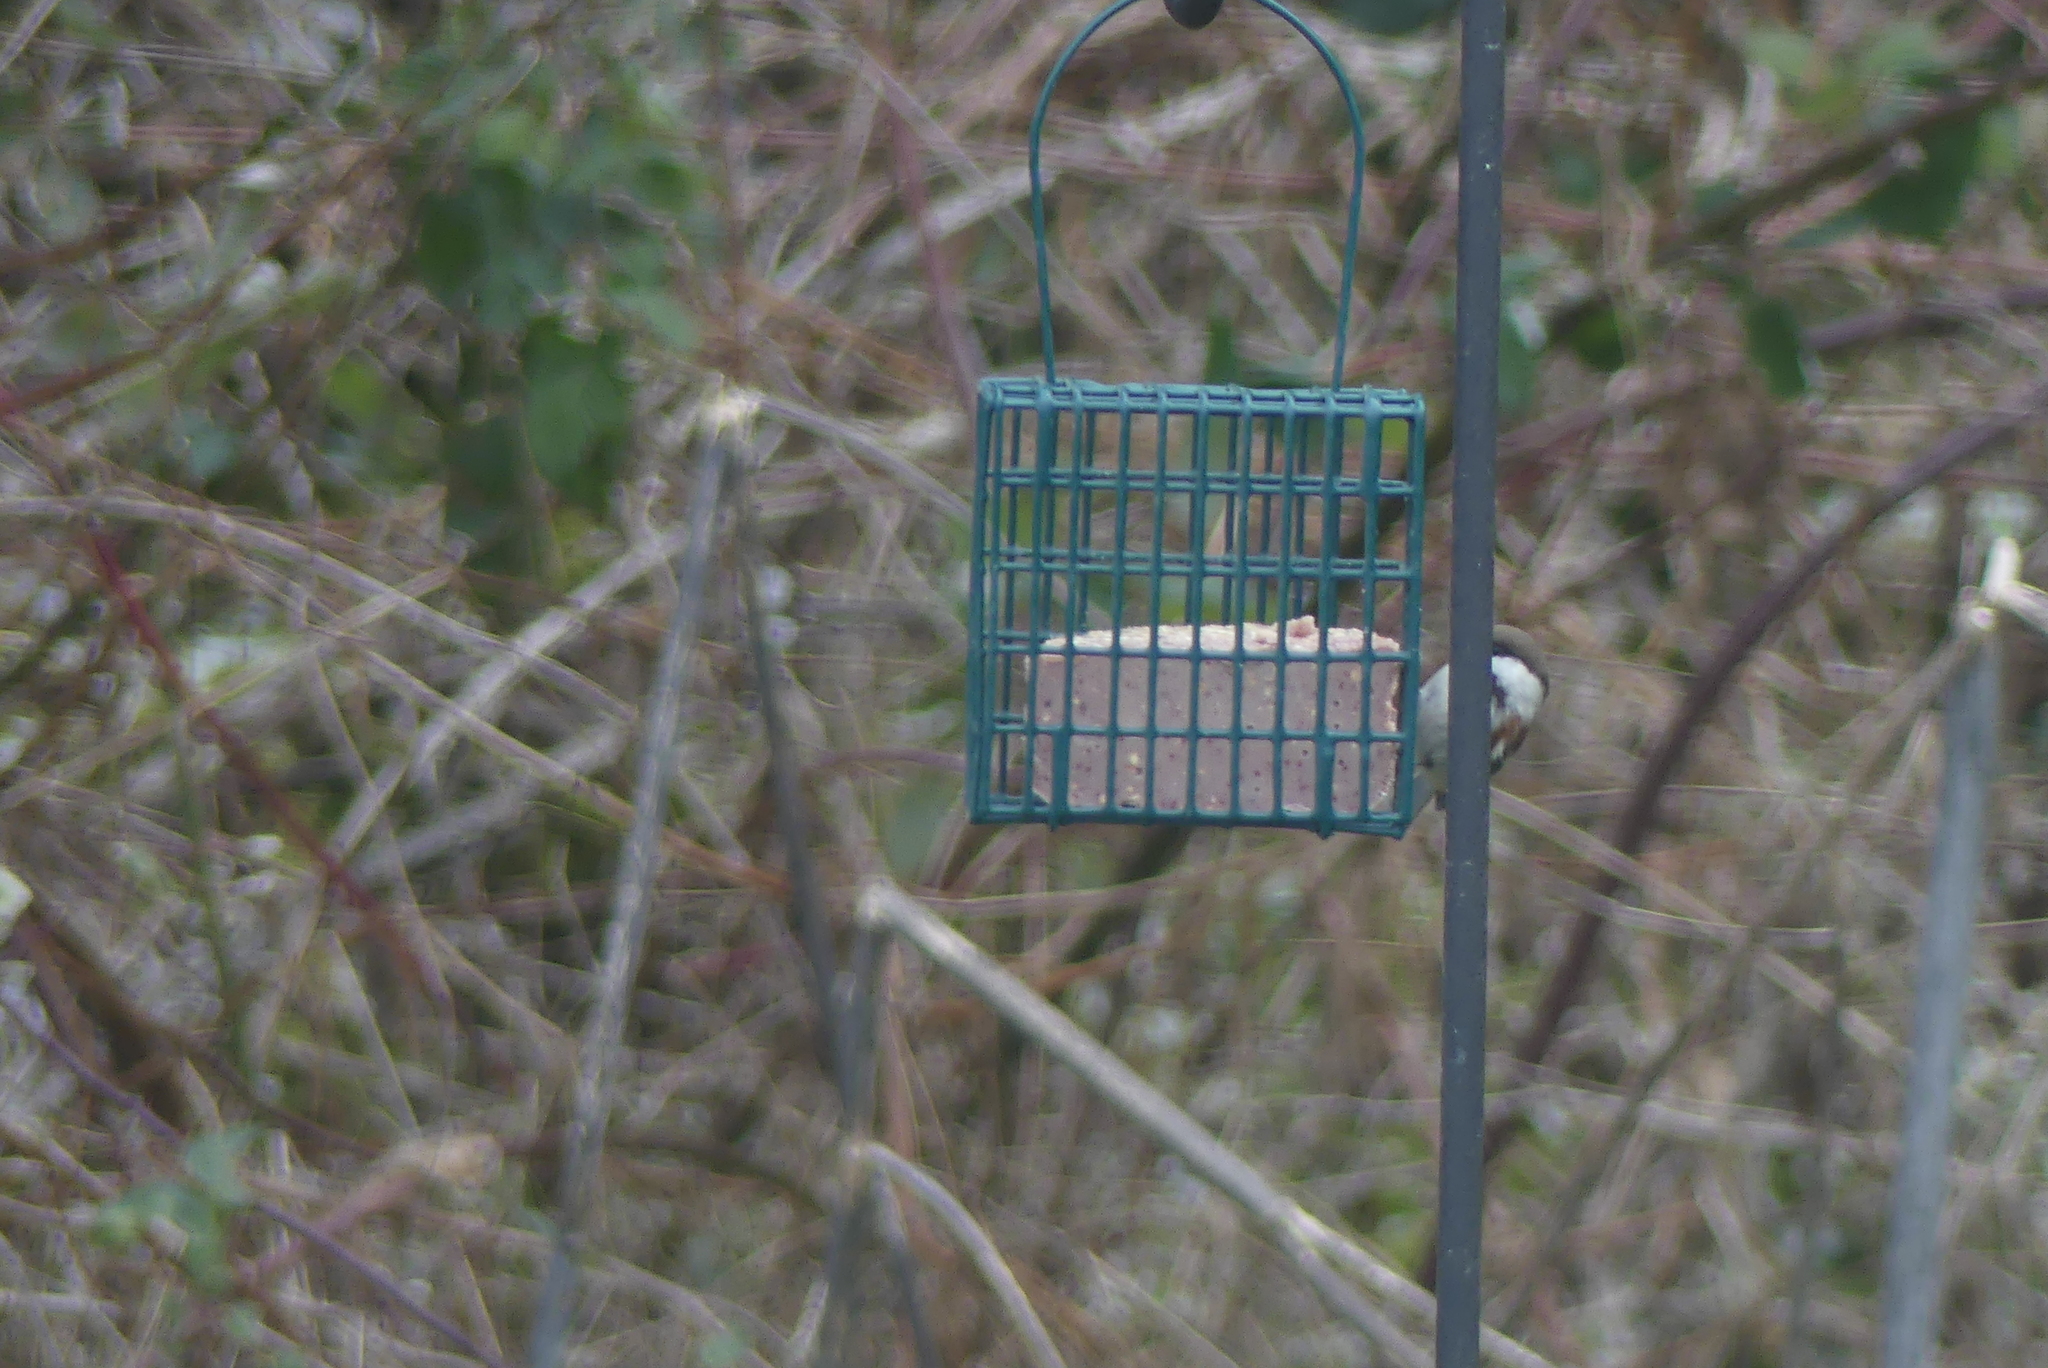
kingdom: Animalia
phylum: Chordata
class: Aves
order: Passeriformes
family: Paridae
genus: Poecile
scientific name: Poecile rufescens
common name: Chestnut-backed chickadee
